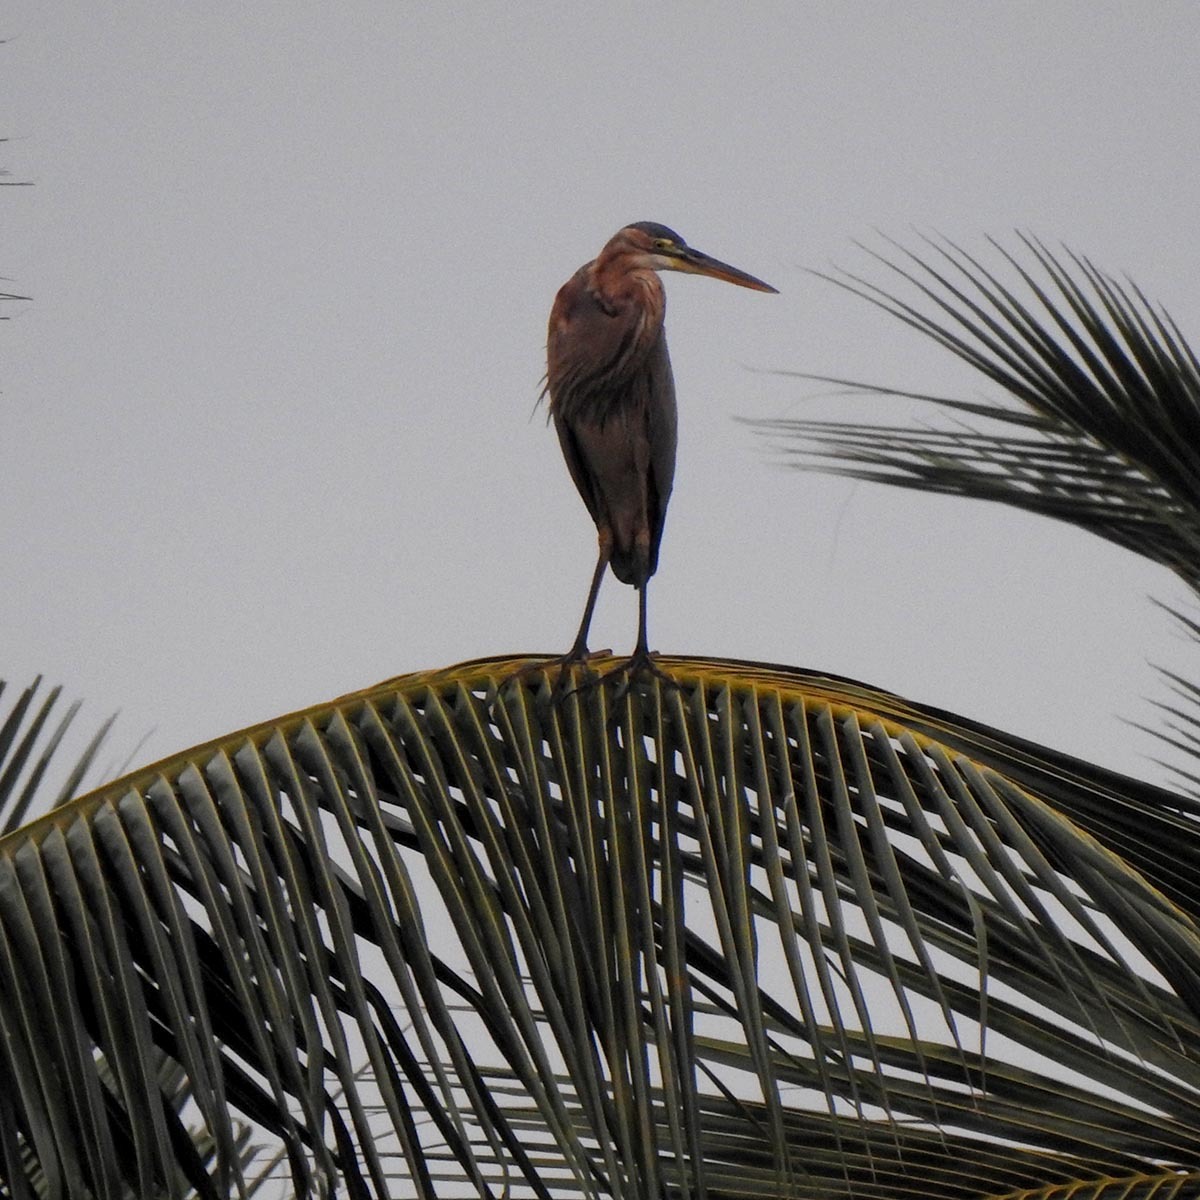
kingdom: Animalia
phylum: Chordata
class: Aves
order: Pelecaniformes
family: Ardeidae
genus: Ardea
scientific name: Ardea purpurea
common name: Purple heron
